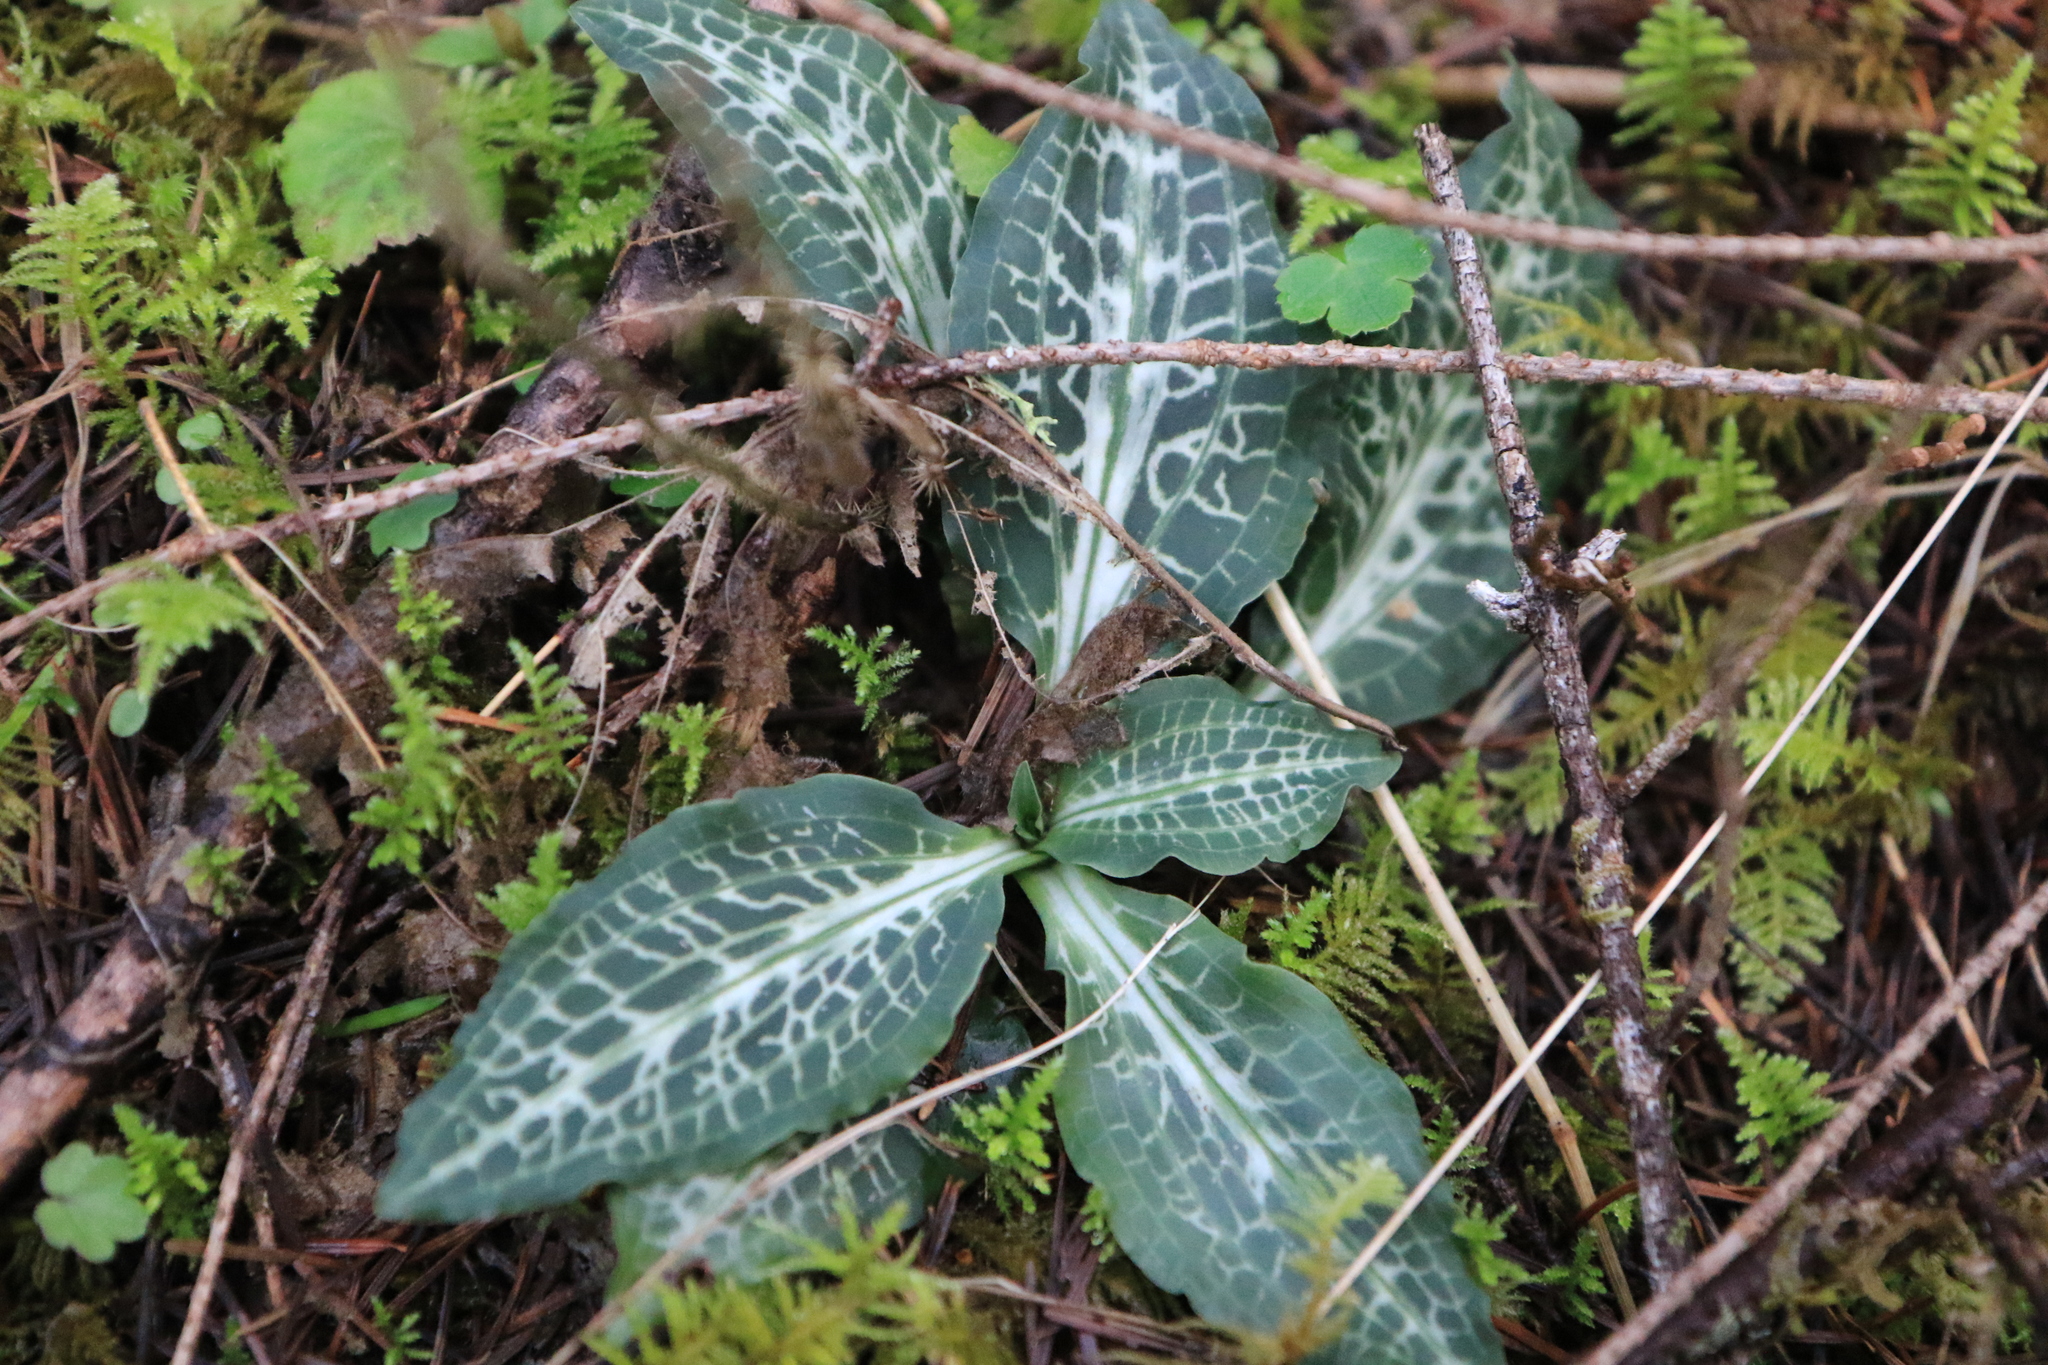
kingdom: Plantae
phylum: Tracheophyta
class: Liliopsida
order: Asparagales
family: Orchidaceae
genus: Goodyera
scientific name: Goodyera oblongifolia
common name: Giant rattlesnake-plantain
